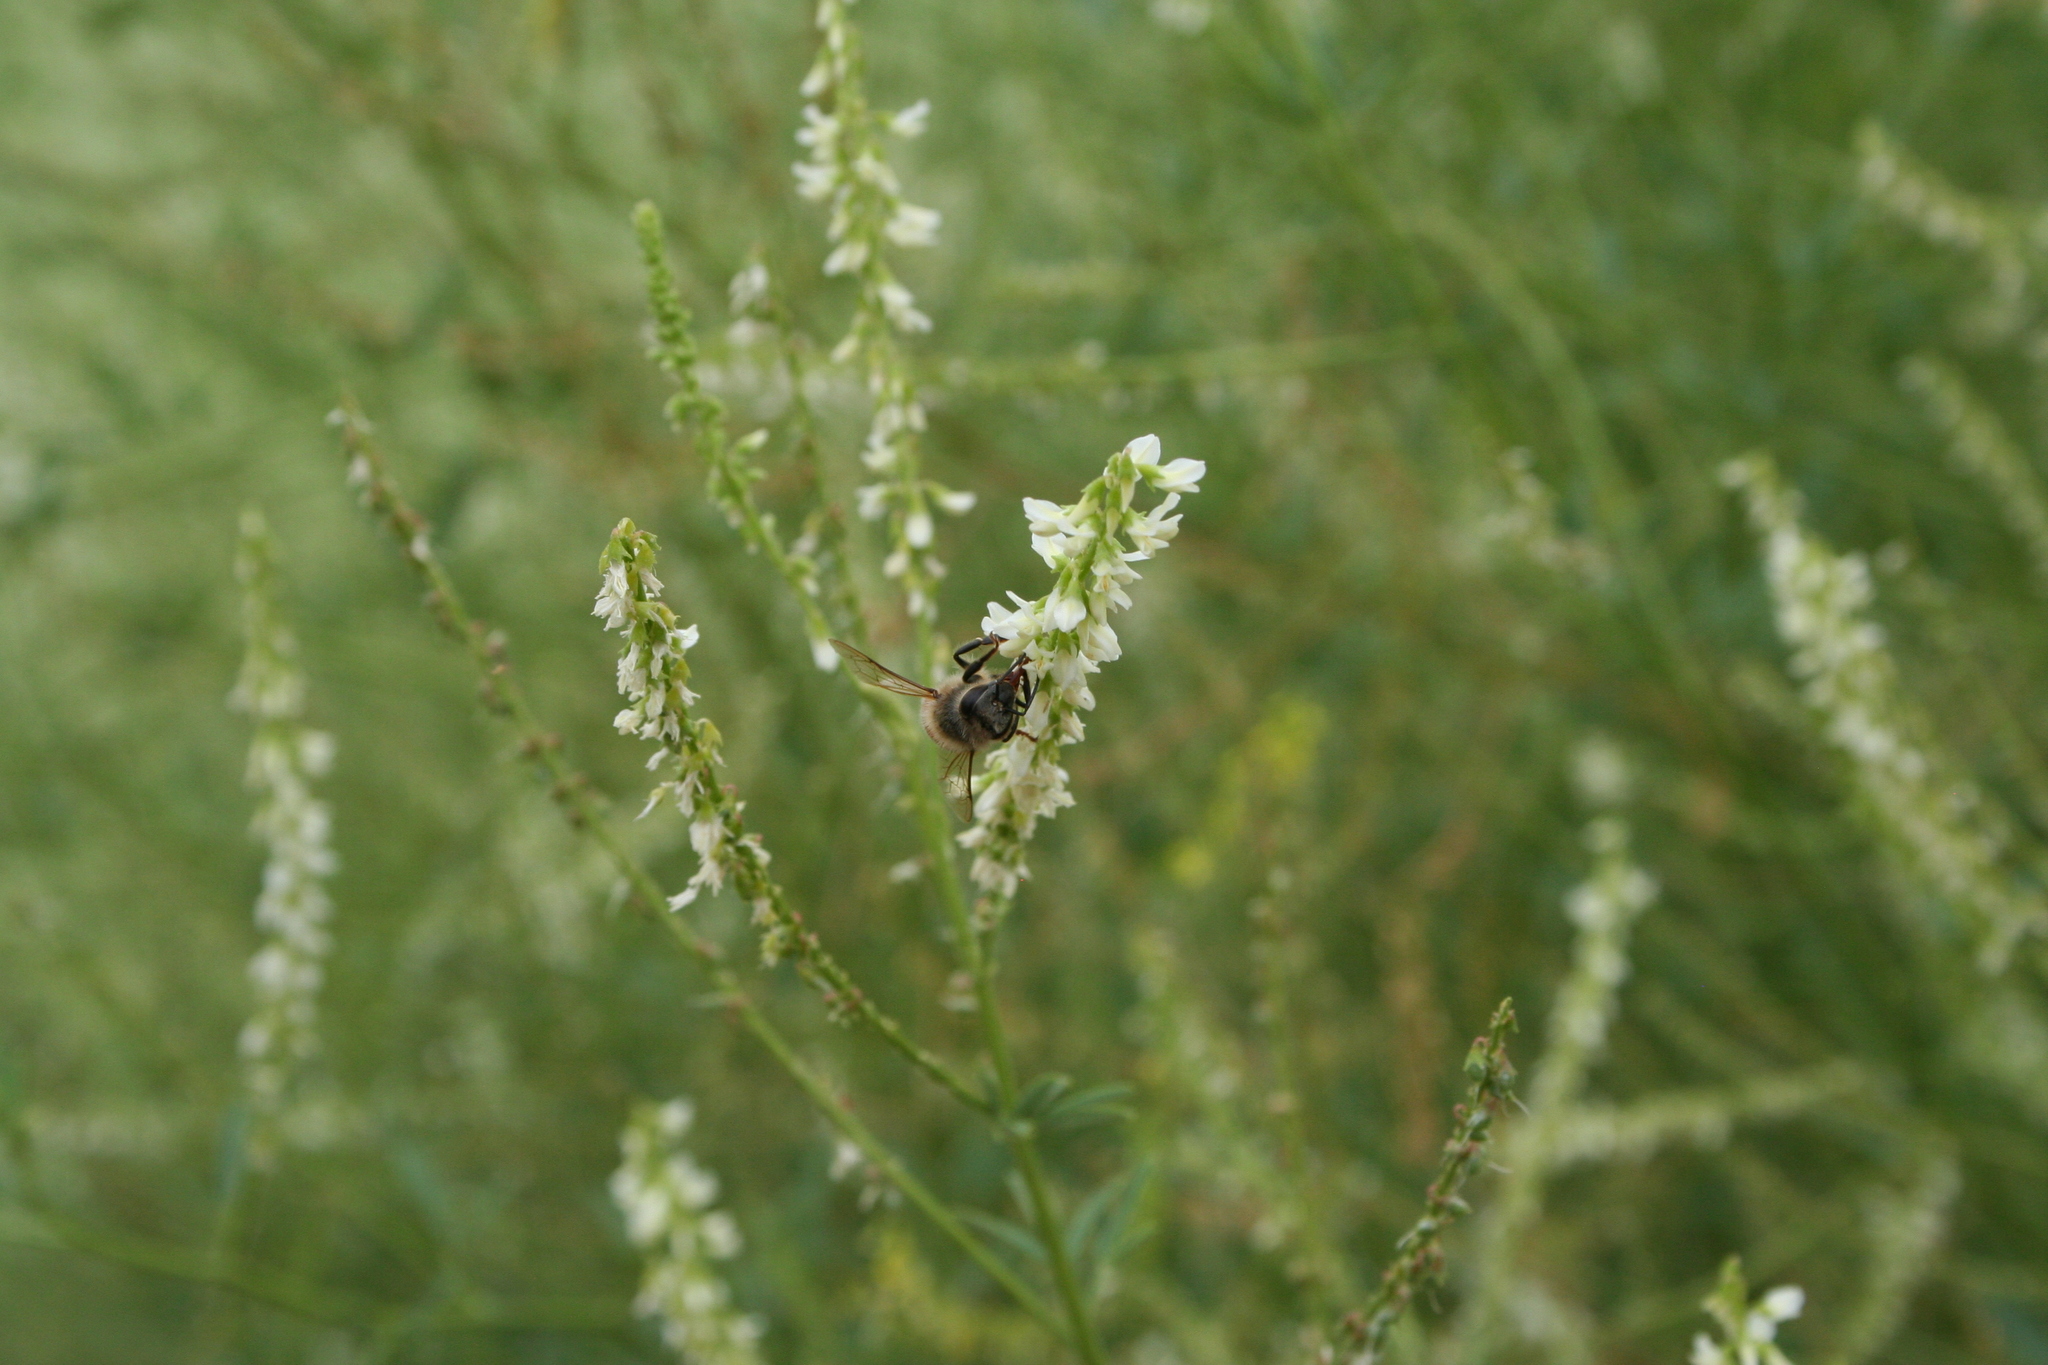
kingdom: Animalia
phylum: Arthropoda
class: Insecta
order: Hymenoptera
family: Apidae
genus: Apis
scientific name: Apis mellifera
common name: Honey bee
